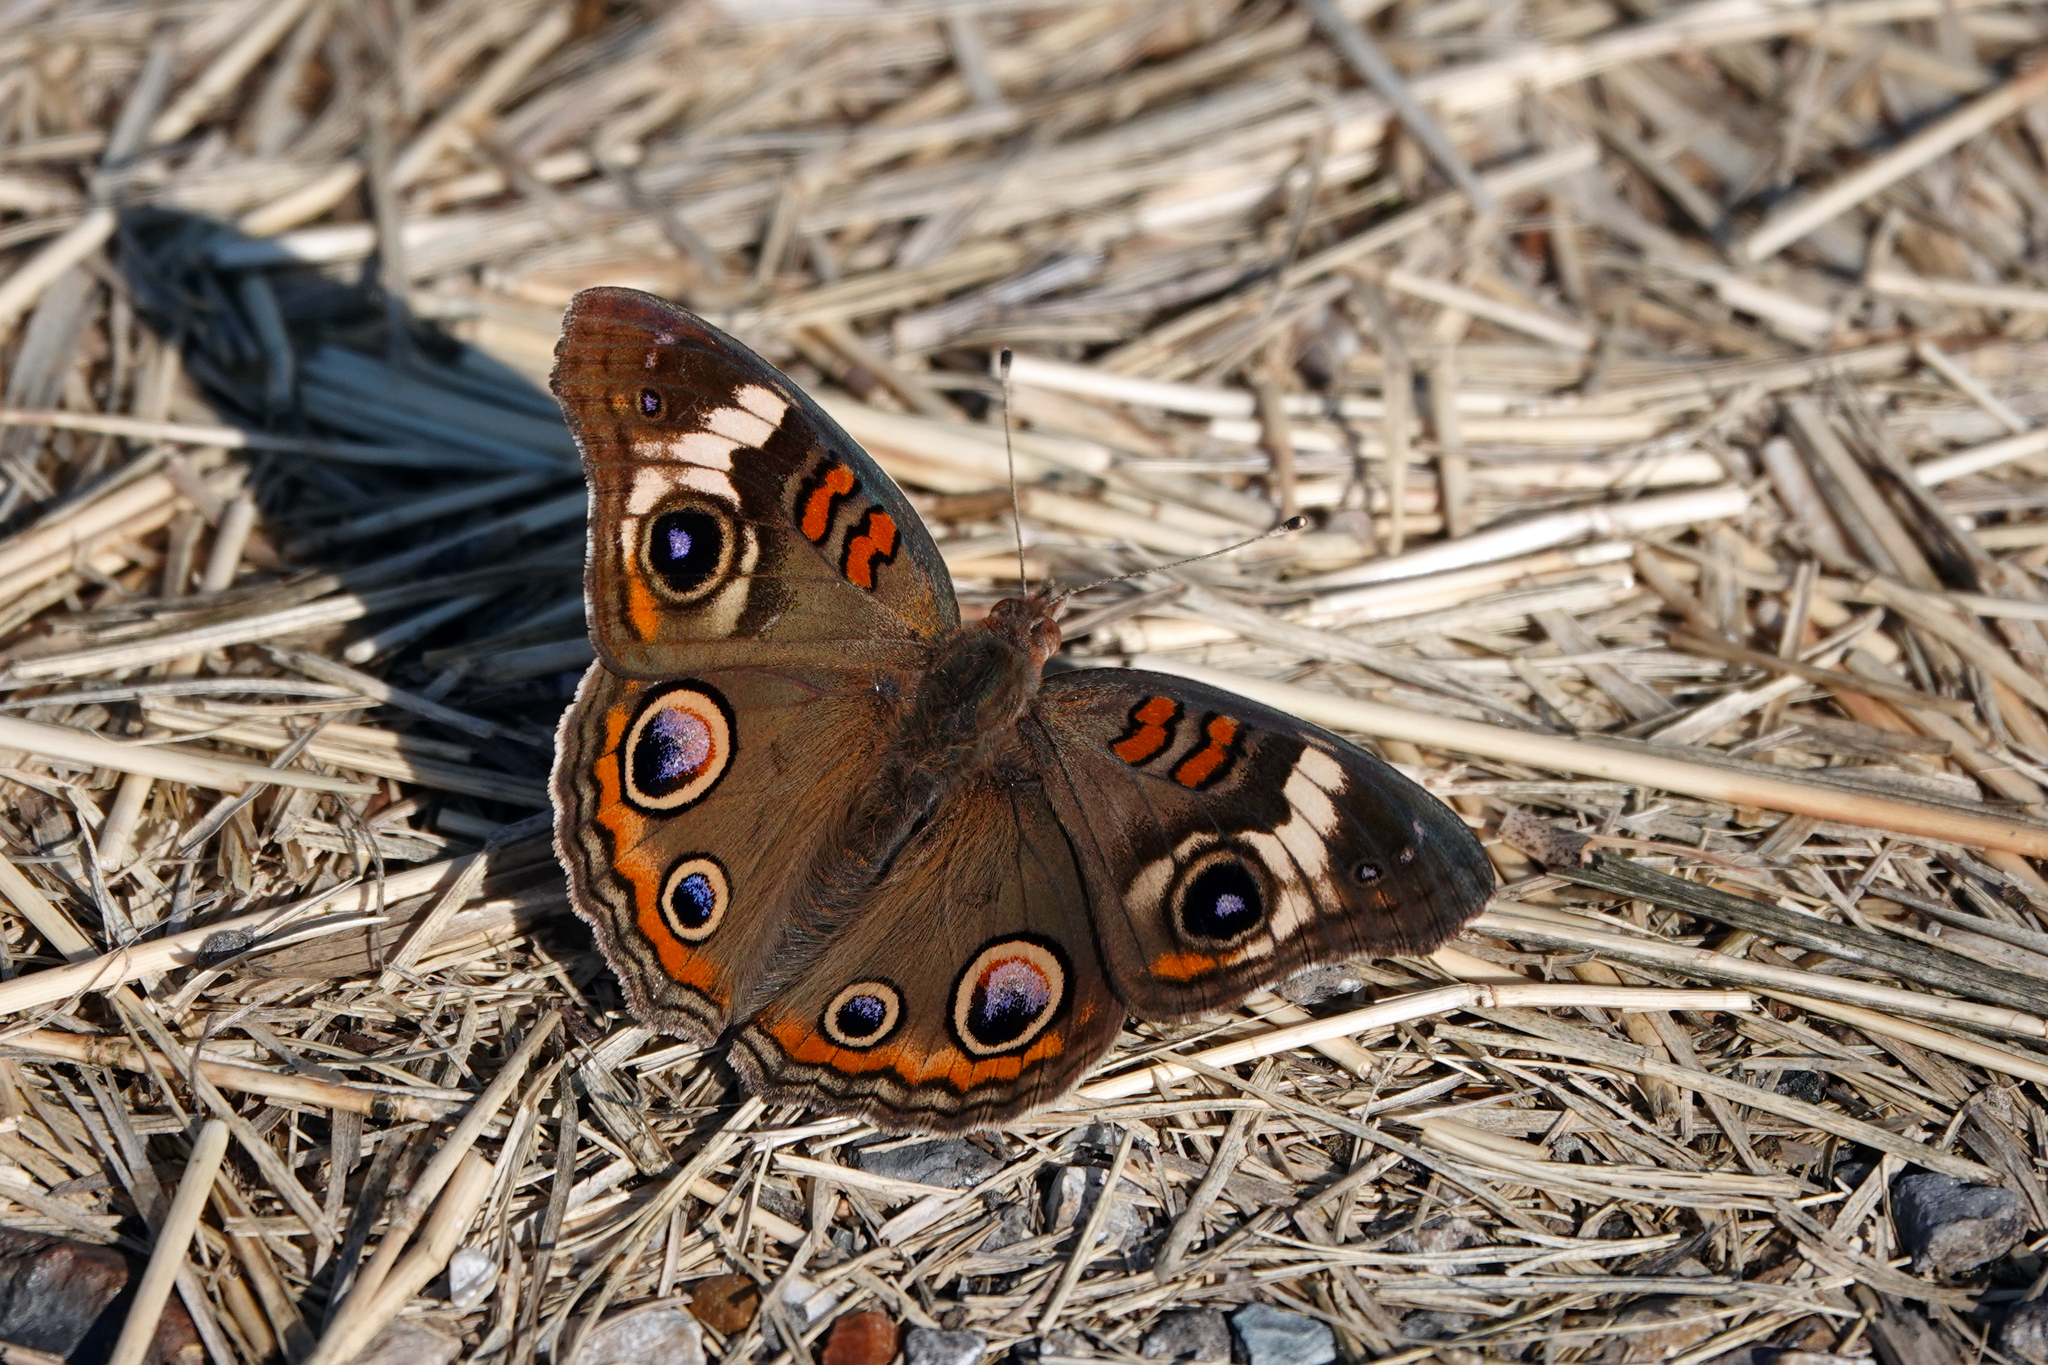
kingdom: Animalia
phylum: Arthropoda
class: Insecta
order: Lepidoptera
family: Nymphalidae
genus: Junonia
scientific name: Junonia coenia
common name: Common buckeye
